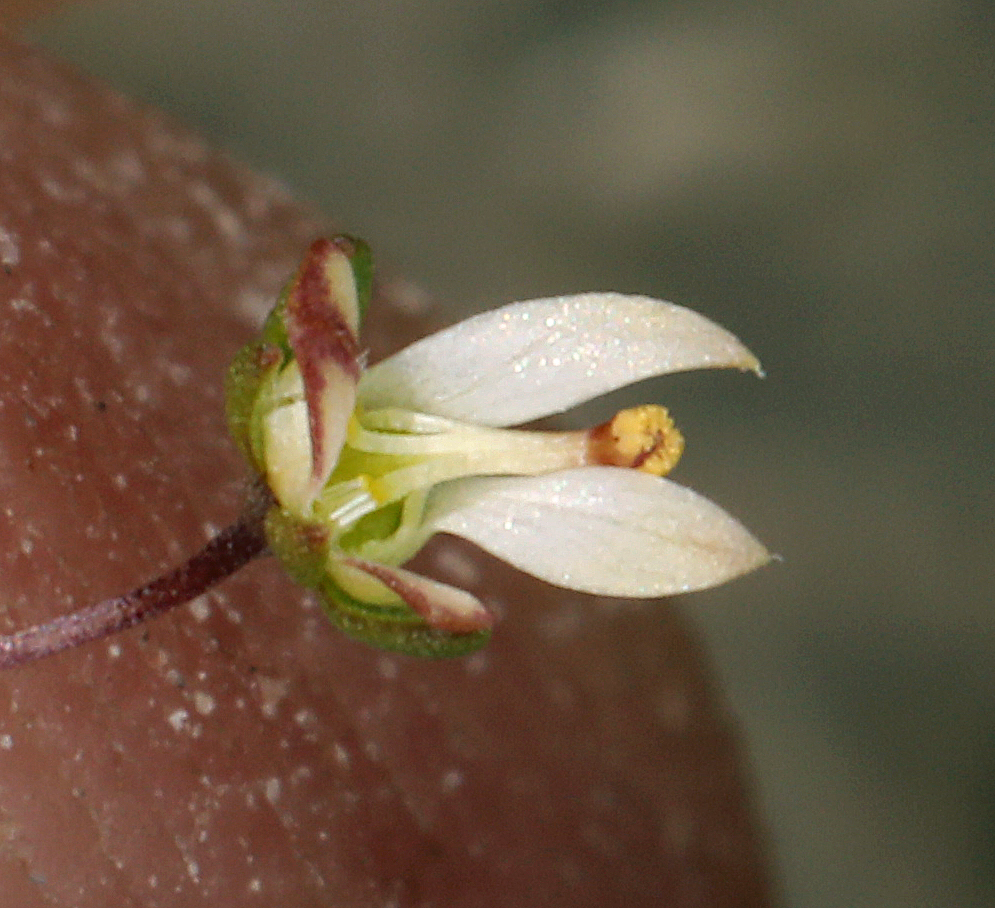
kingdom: Plantae
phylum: Tracheophyta
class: Magnoliopsida
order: Asterales
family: Campanulaceae
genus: Nemacladus
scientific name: Nemacladus morefieldii
